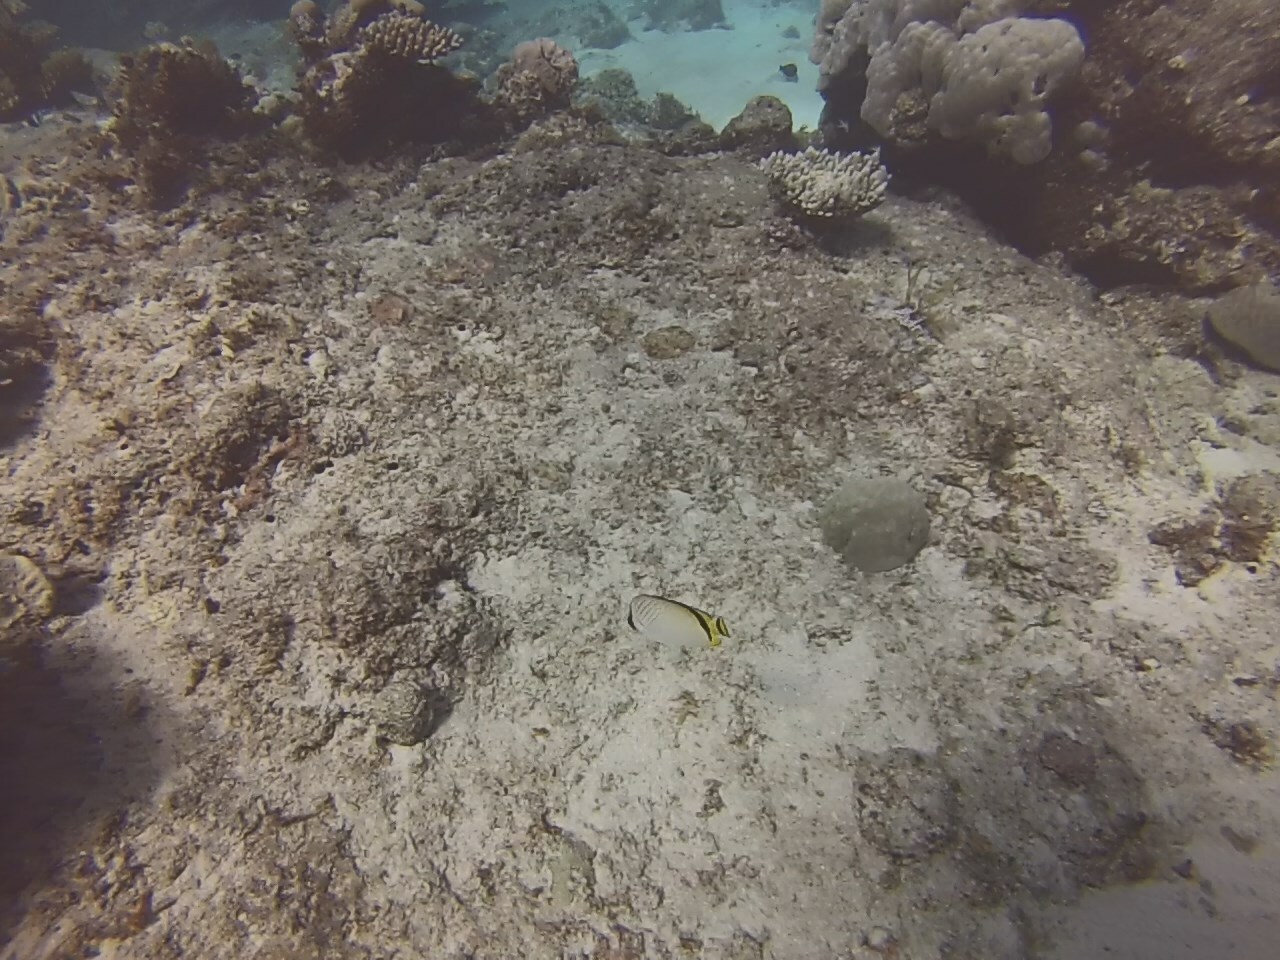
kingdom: Animalia
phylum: Chordata
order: Perciformes
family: Chaetodontidae
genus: Chaetodon
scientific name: Chaetodon vagabundus
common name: Vagabond butterflyfish
